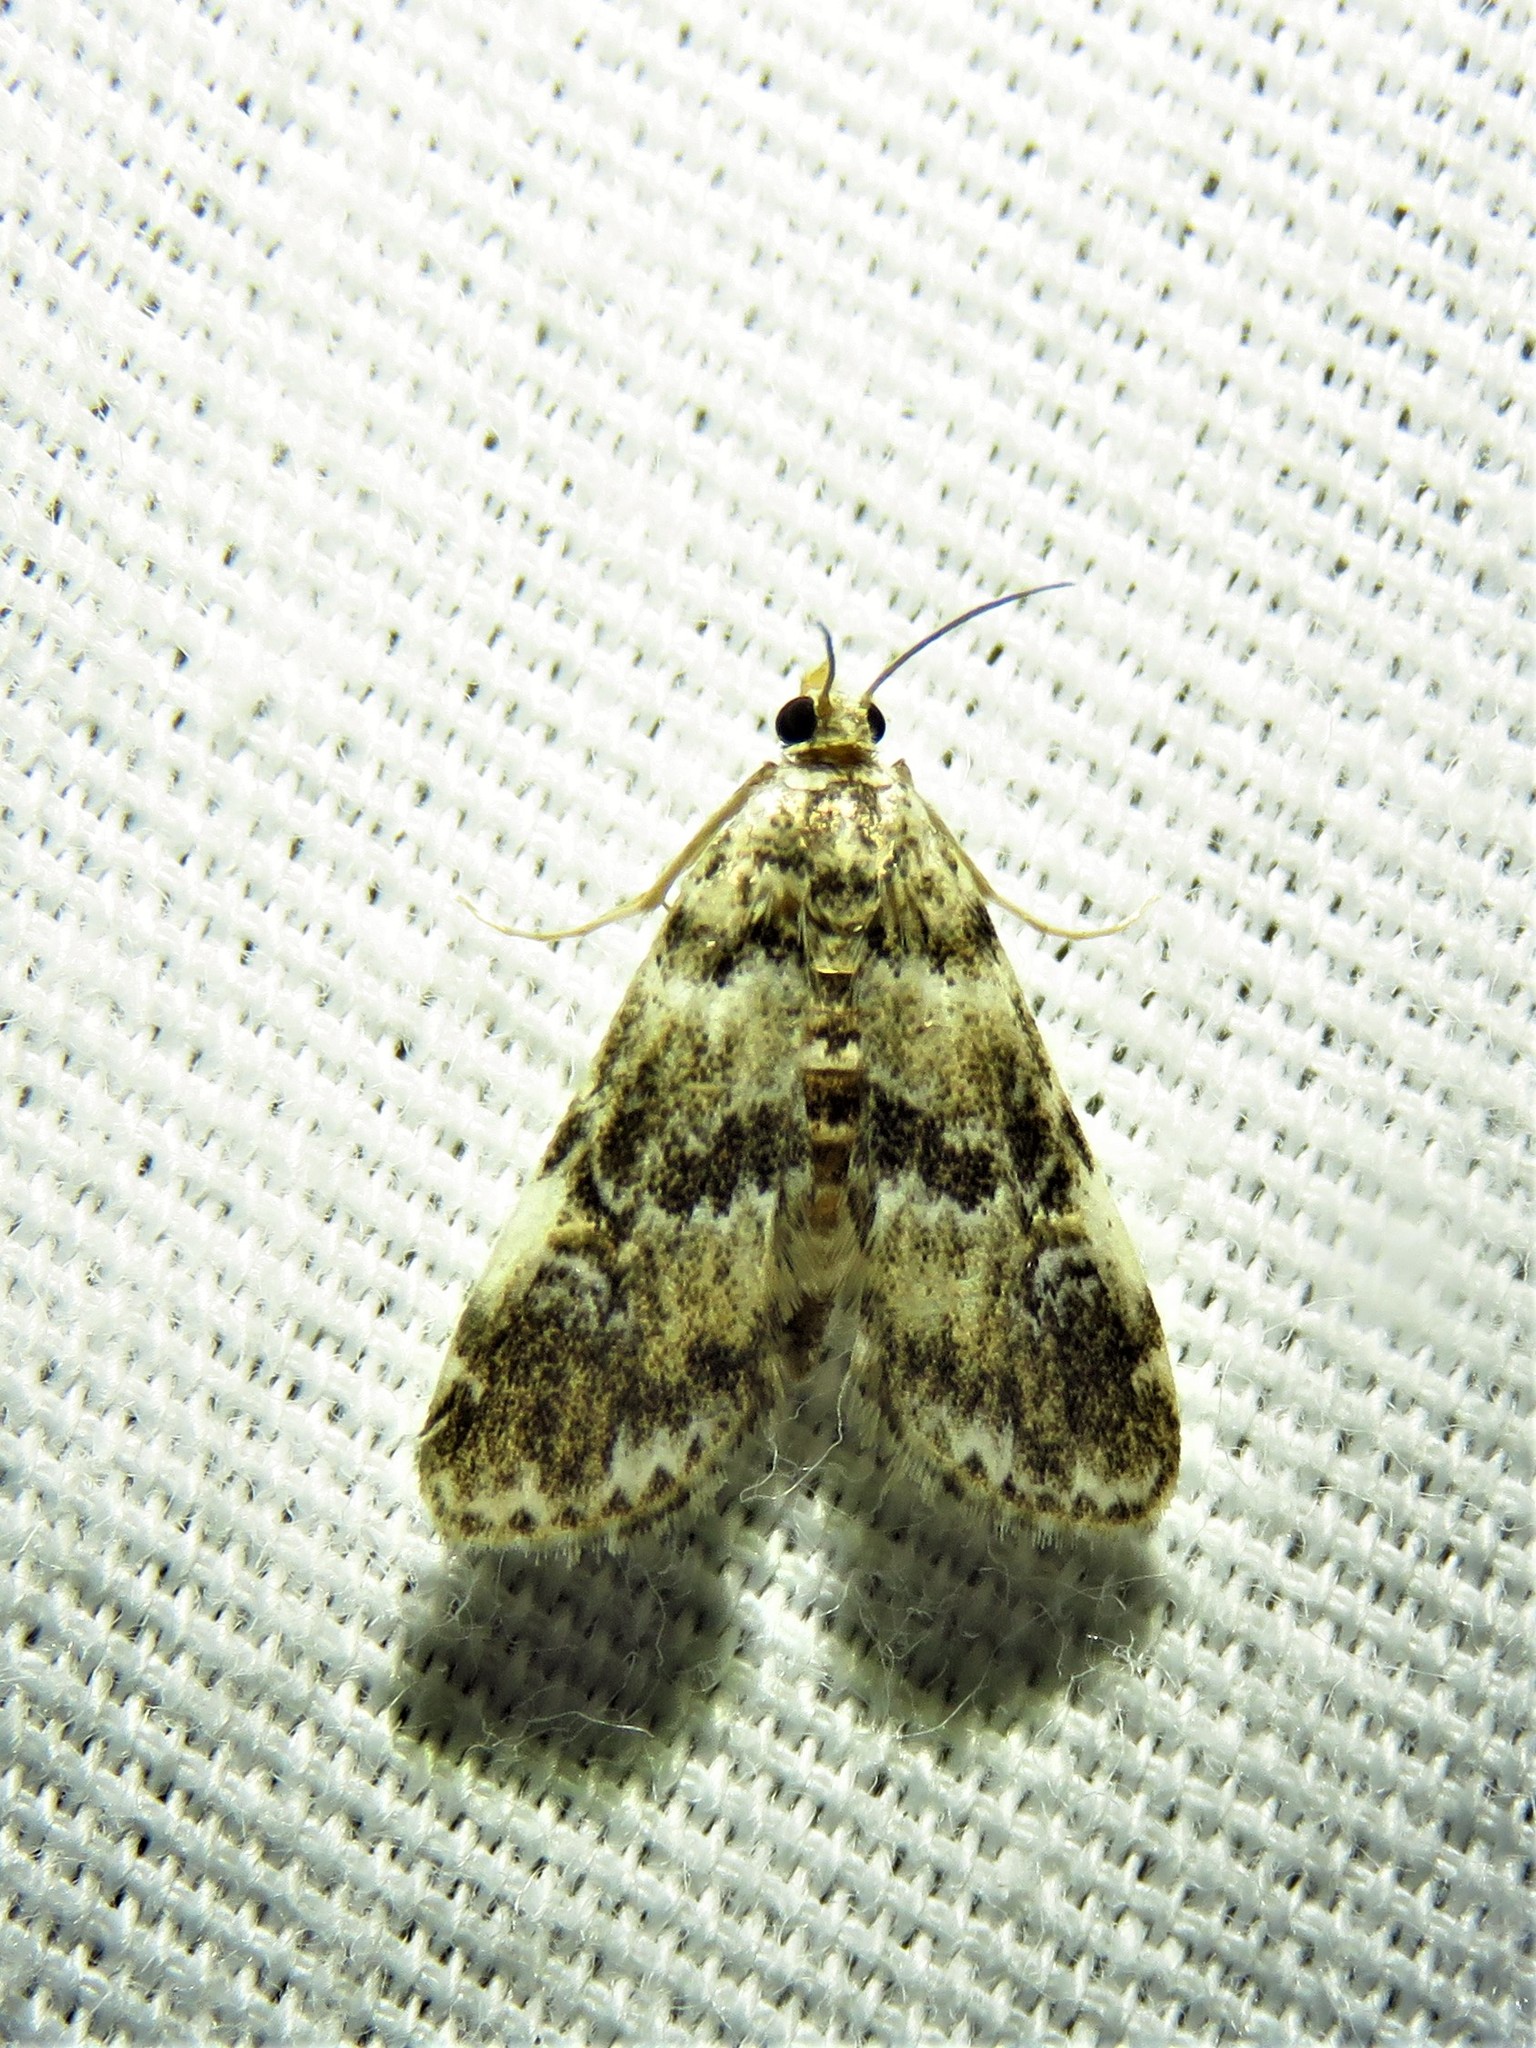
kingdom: Animalia
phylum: Arthropoda
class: Insecta
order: Lepidoptera
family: Crambidae
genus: Elophila
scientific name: Elophila obliteralis
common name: Waterlily leafcutter moth
